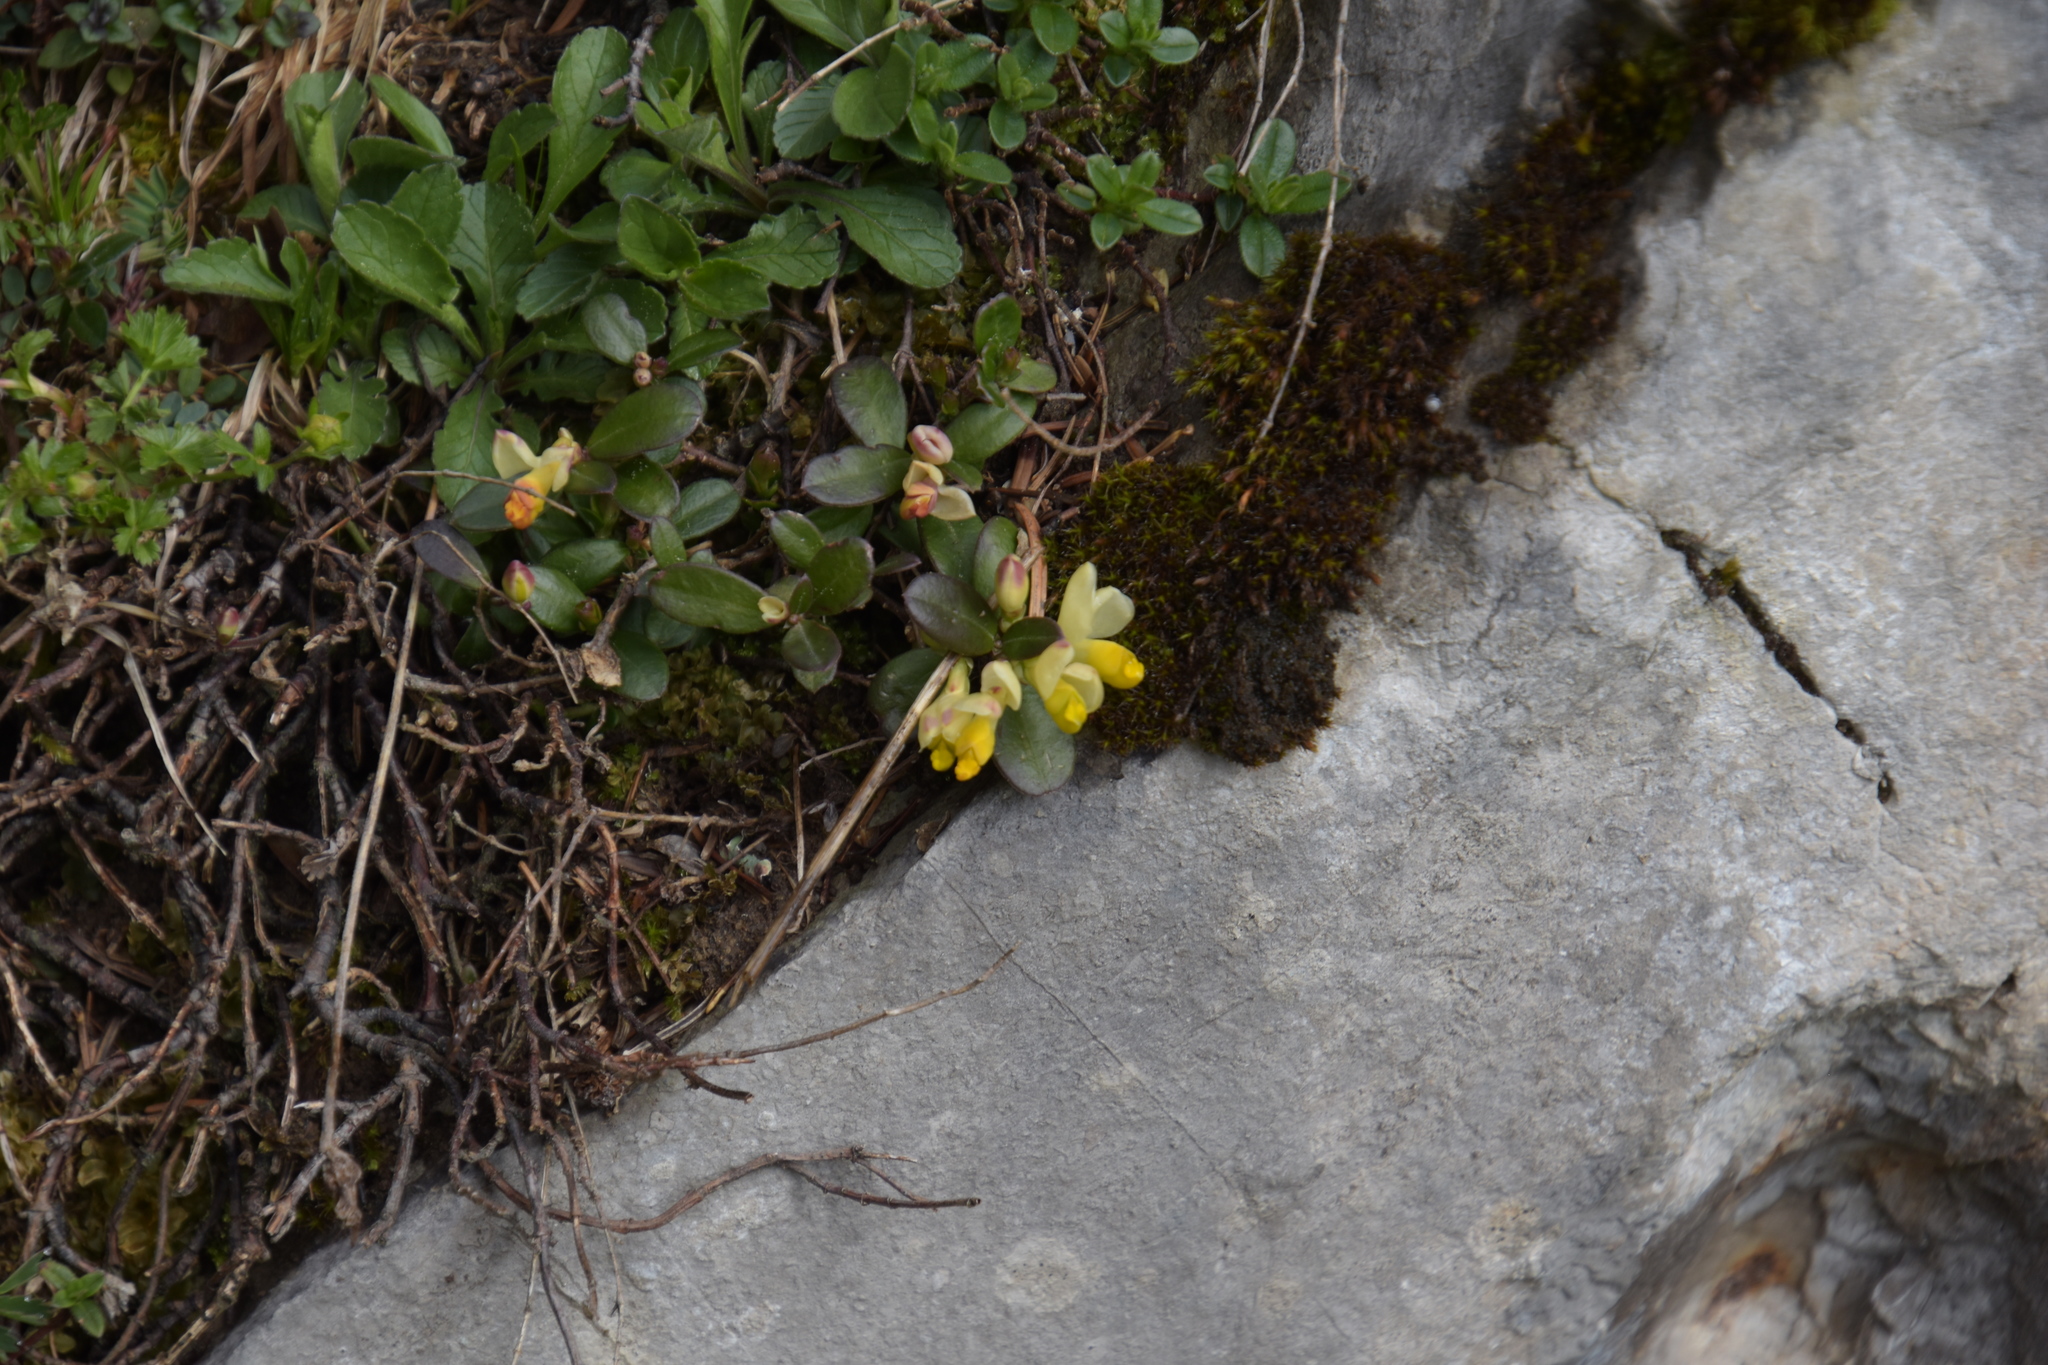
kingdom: Plantae
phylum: Tracheophyta
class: Magnoliopsida
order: Fabales
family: Polygalaceae
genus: Polygaloides
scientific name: Polygaloides chamaebuxus
